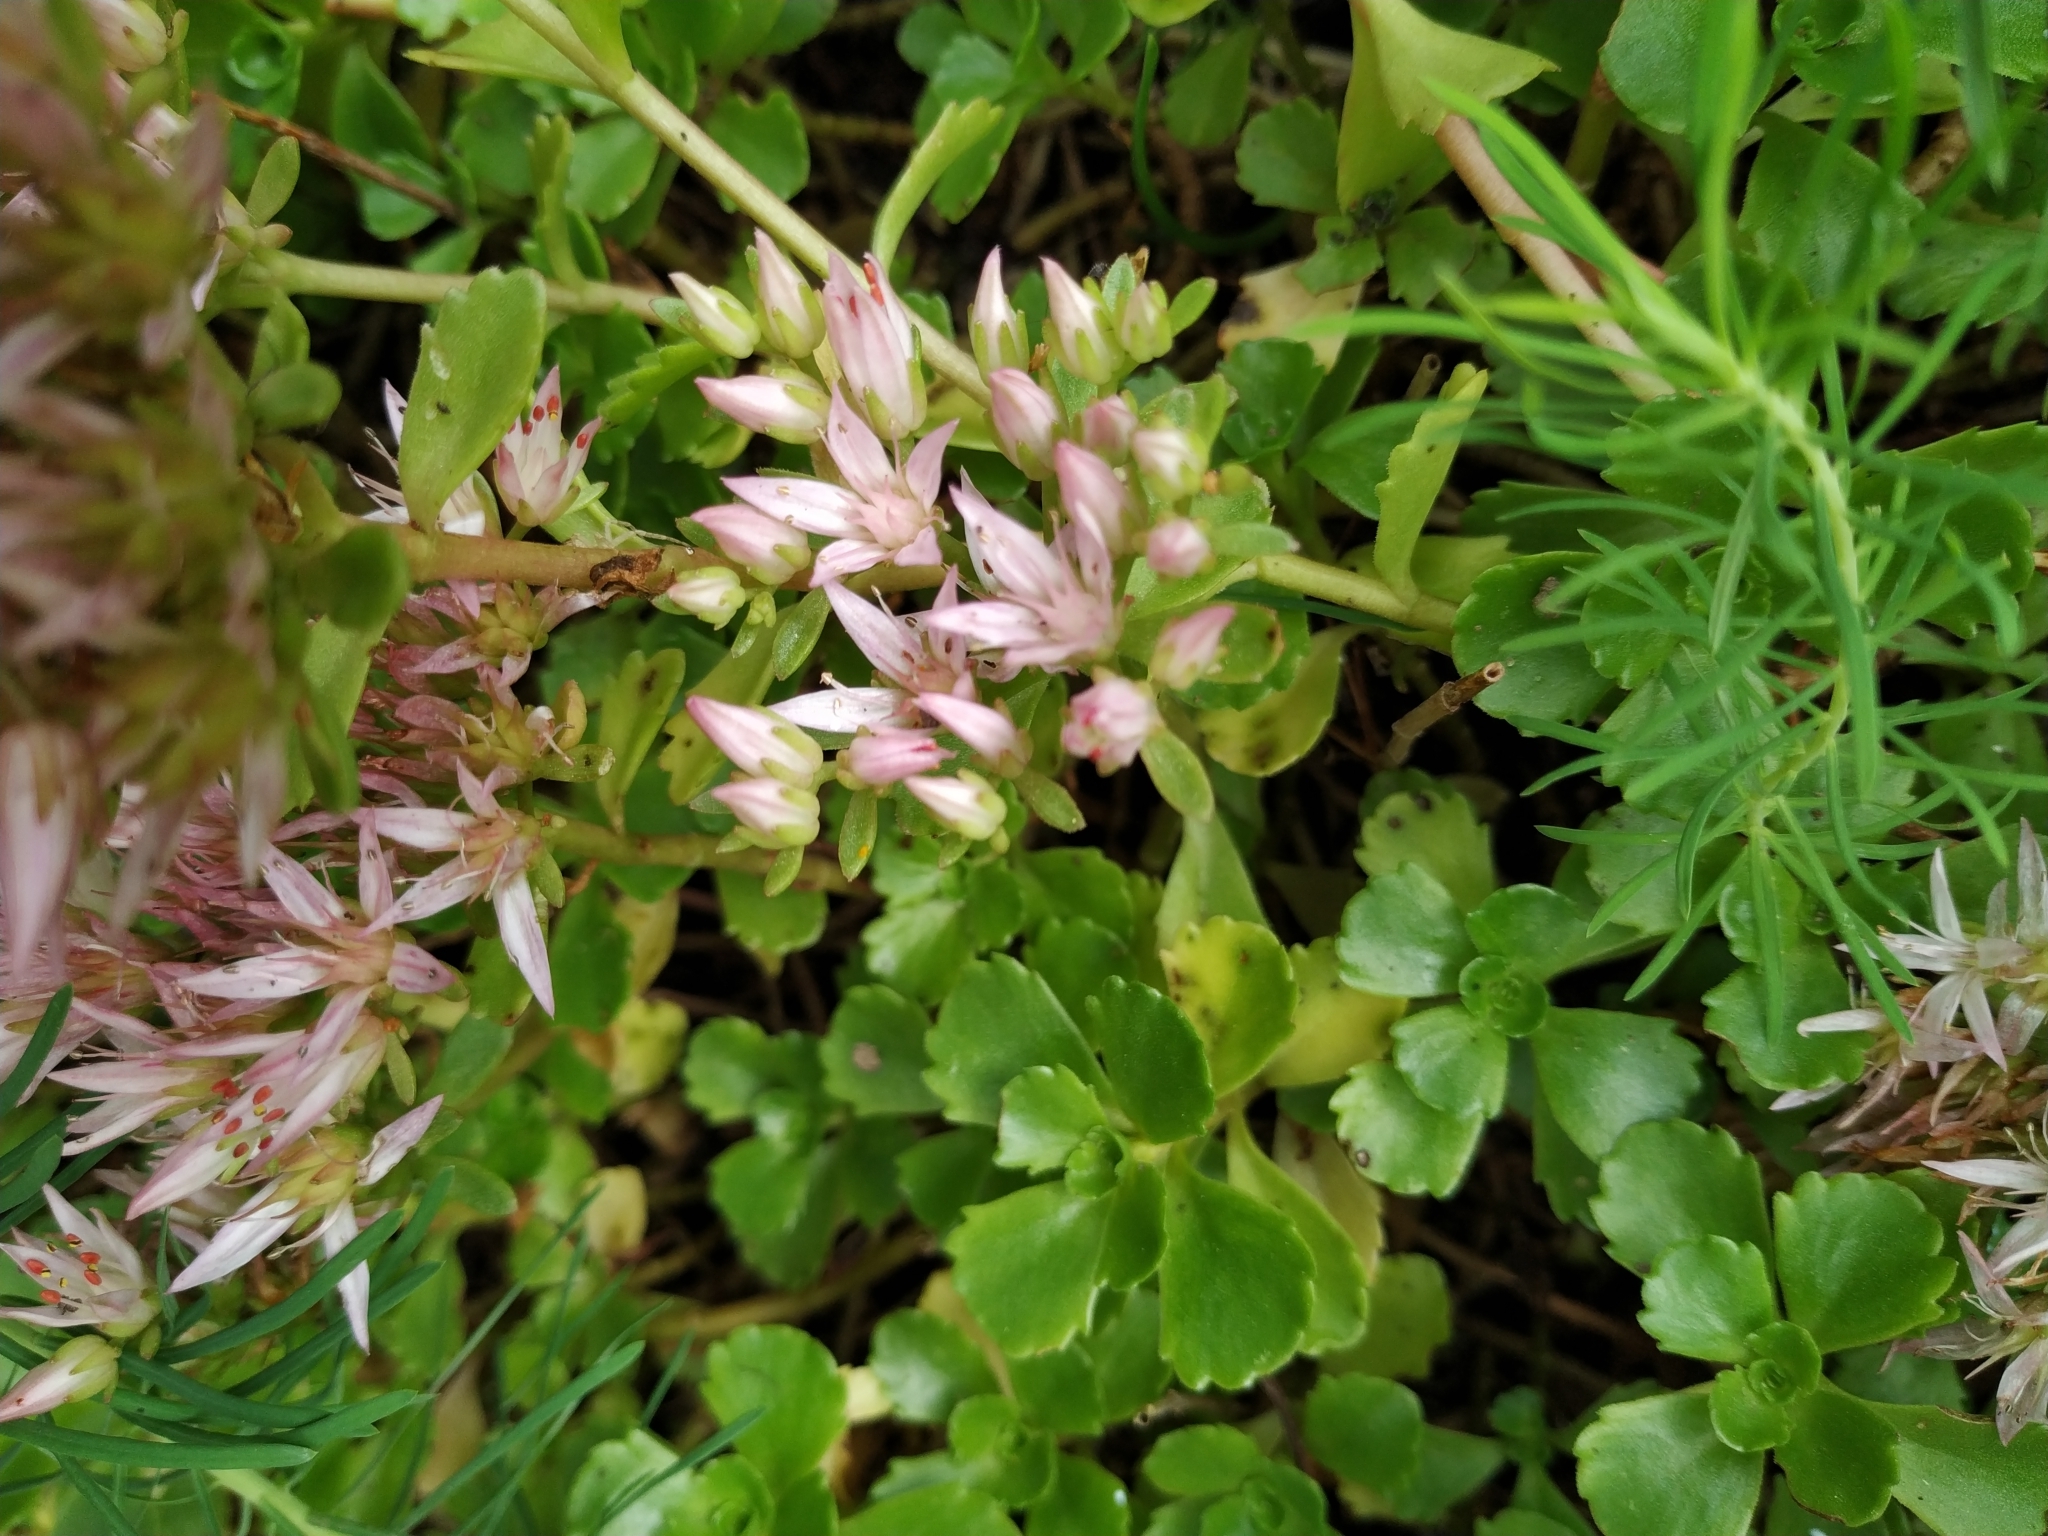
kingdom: Plantae
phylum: Tracheophyta
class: Magnoliopsida
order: Saxifragales
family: Crassulaceae
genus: Phedimus
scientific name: Phedimus spurius
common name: Caucasian stonecrop
